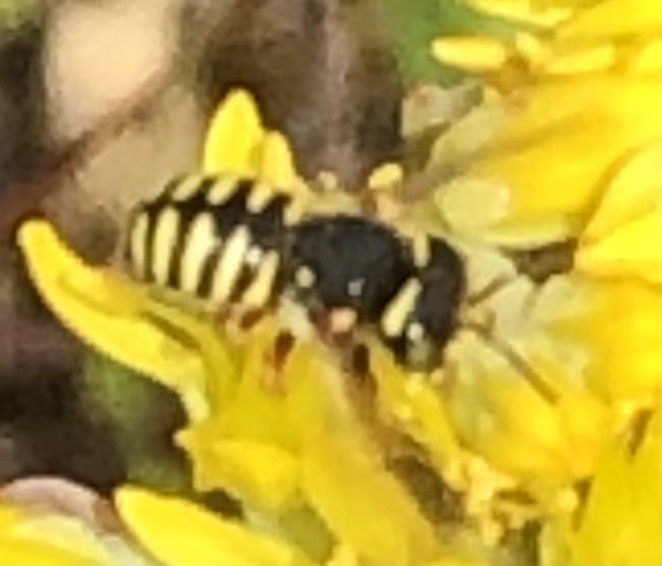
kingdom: Animalia
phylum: Arthropoda
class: Insecta
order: Hymenoptera
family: Megachilidae
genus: Anthidium
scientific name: Anthidium oblongatum
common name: Oblong wool carder bee
